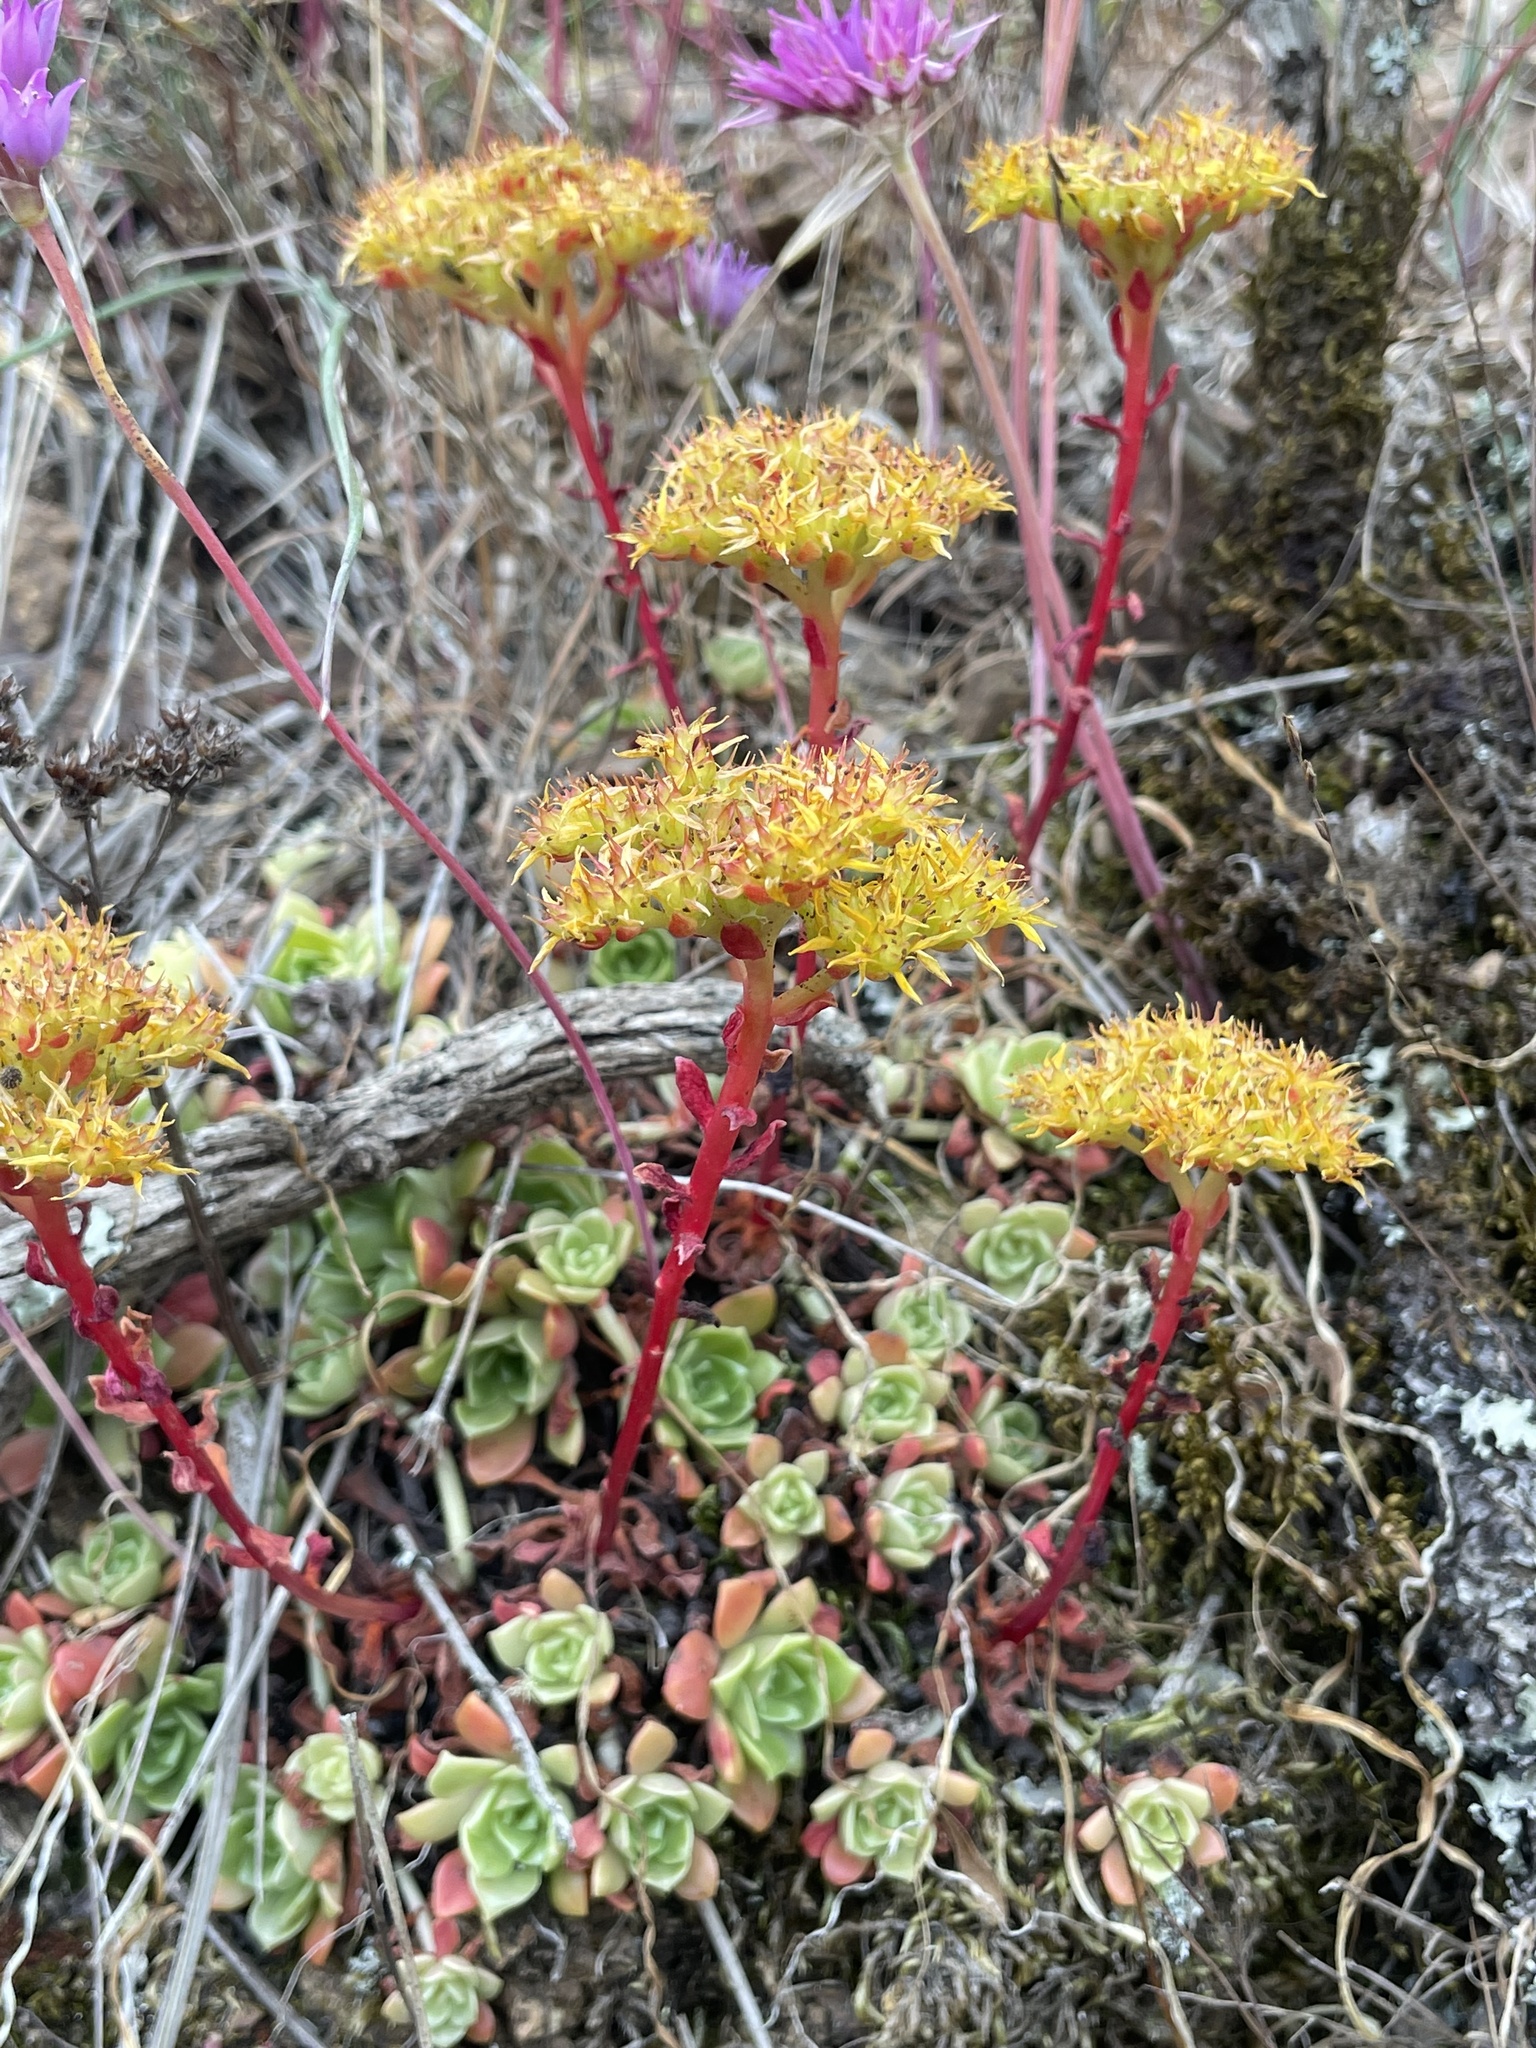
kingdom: Plantae
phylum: Tracheophyta
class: Magnoliopsida
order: Saxifragales
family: Crassulaceae
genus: Sedum
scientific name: Sedum spathulifolium
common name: Colorado stonecrop
